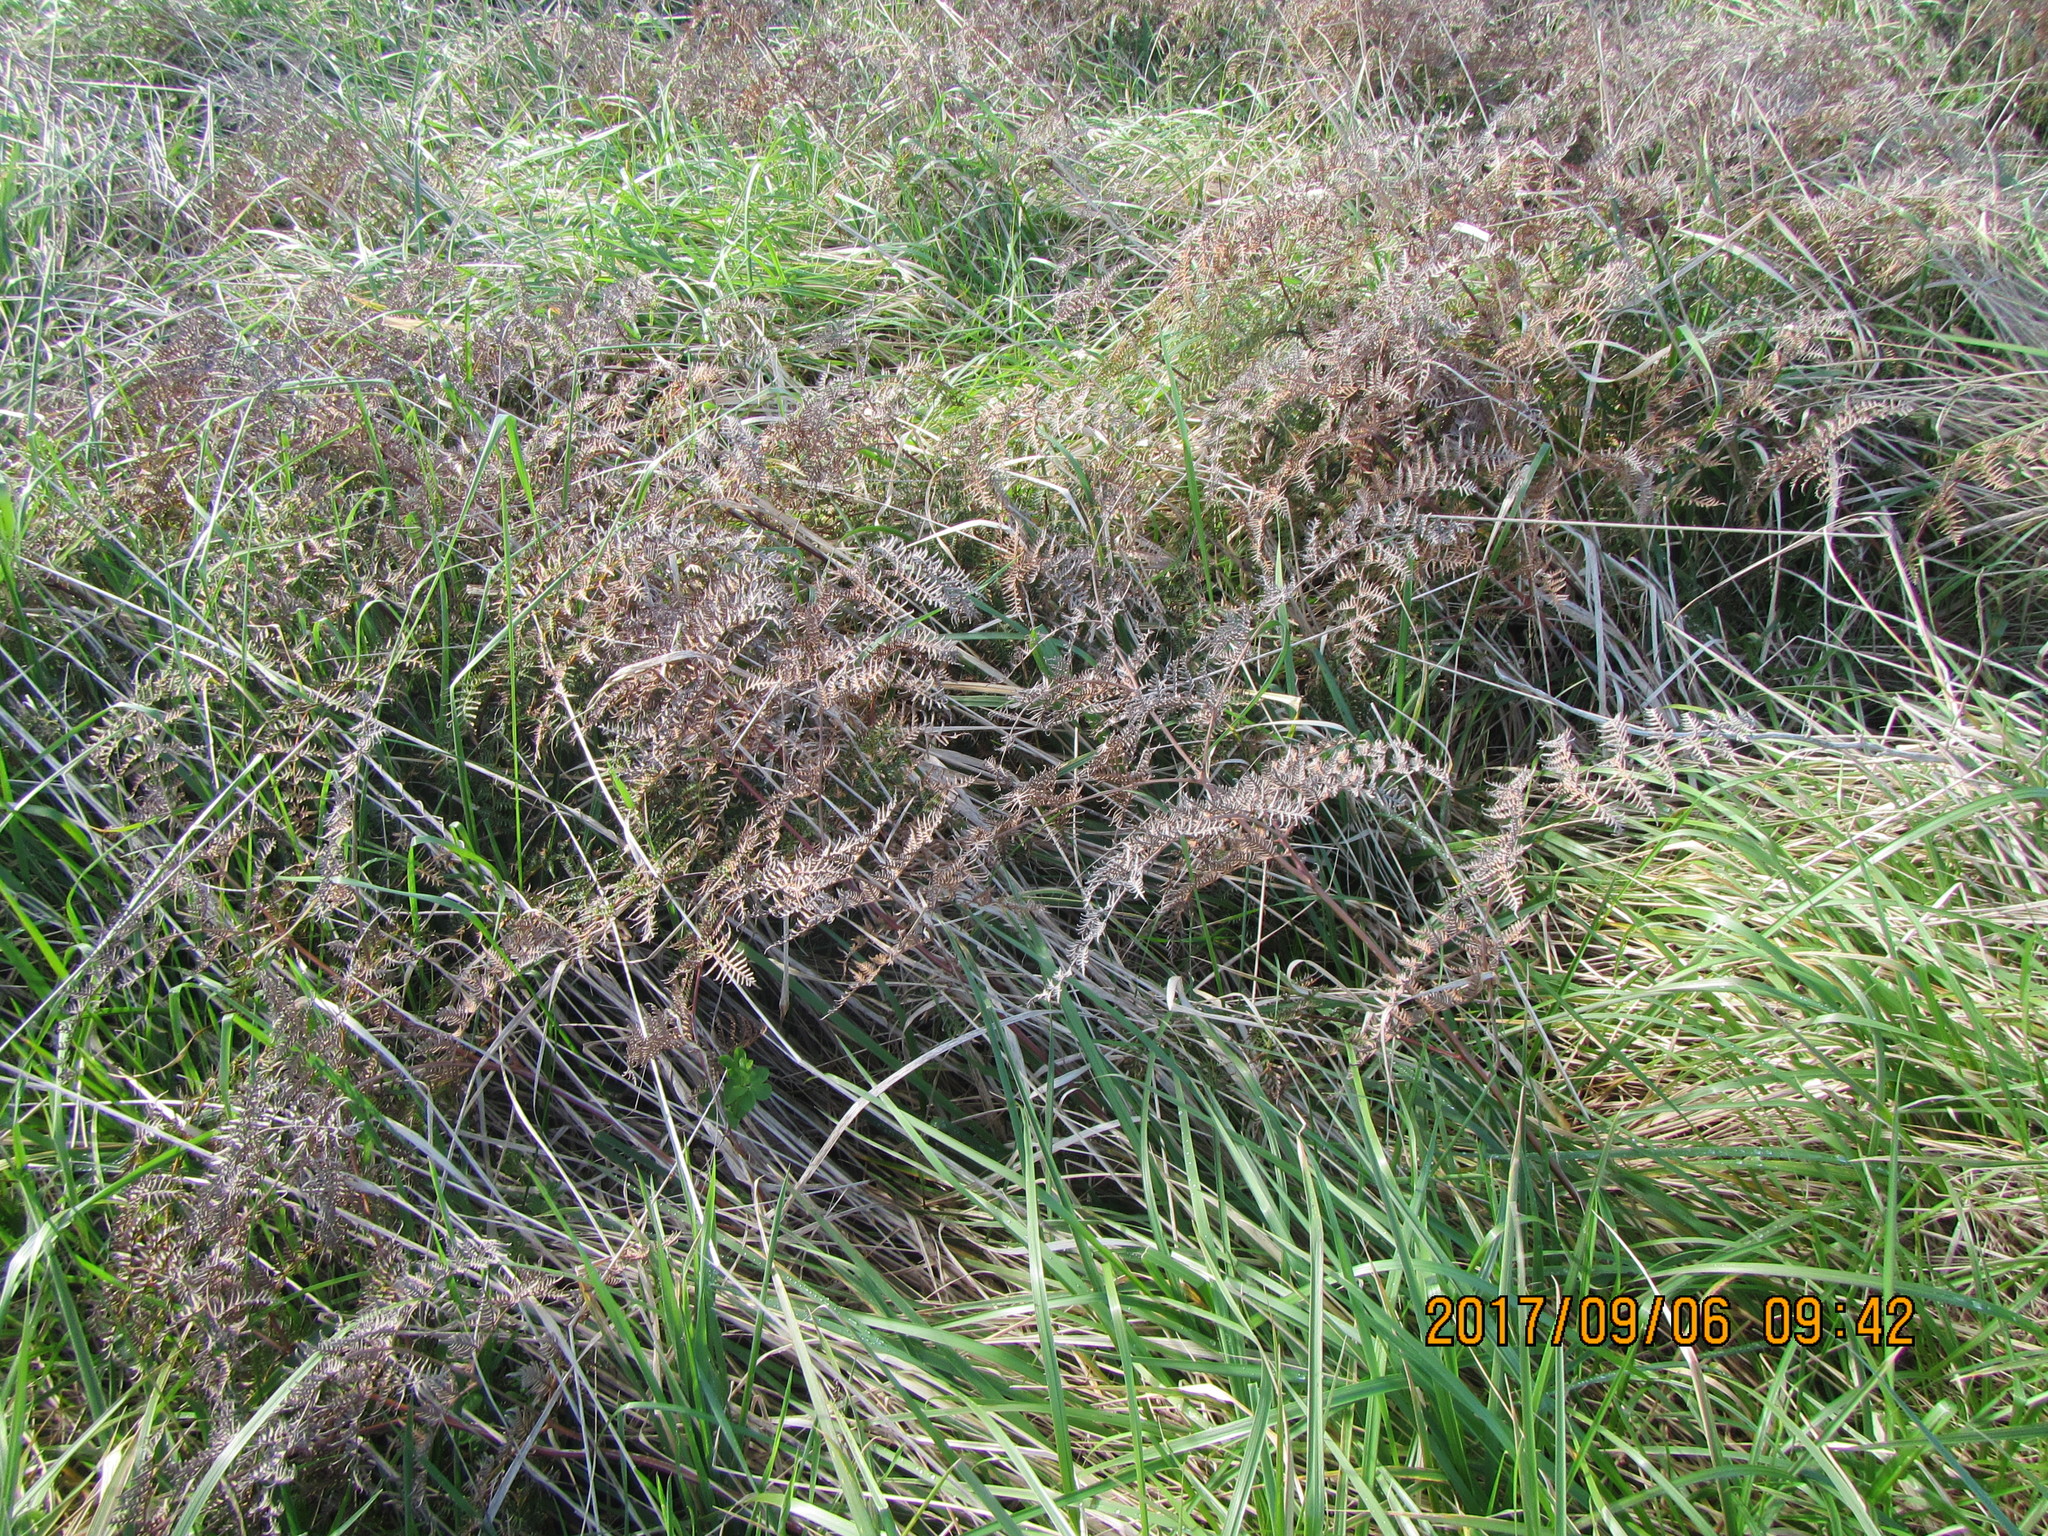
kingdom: Plantae
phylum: Tracheophyta
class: Polypodiopsida
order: Polypodiales
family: Dennstaedtiaceae
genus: Pteridium
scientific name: Pteridium esculentum
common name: Bracken fern
